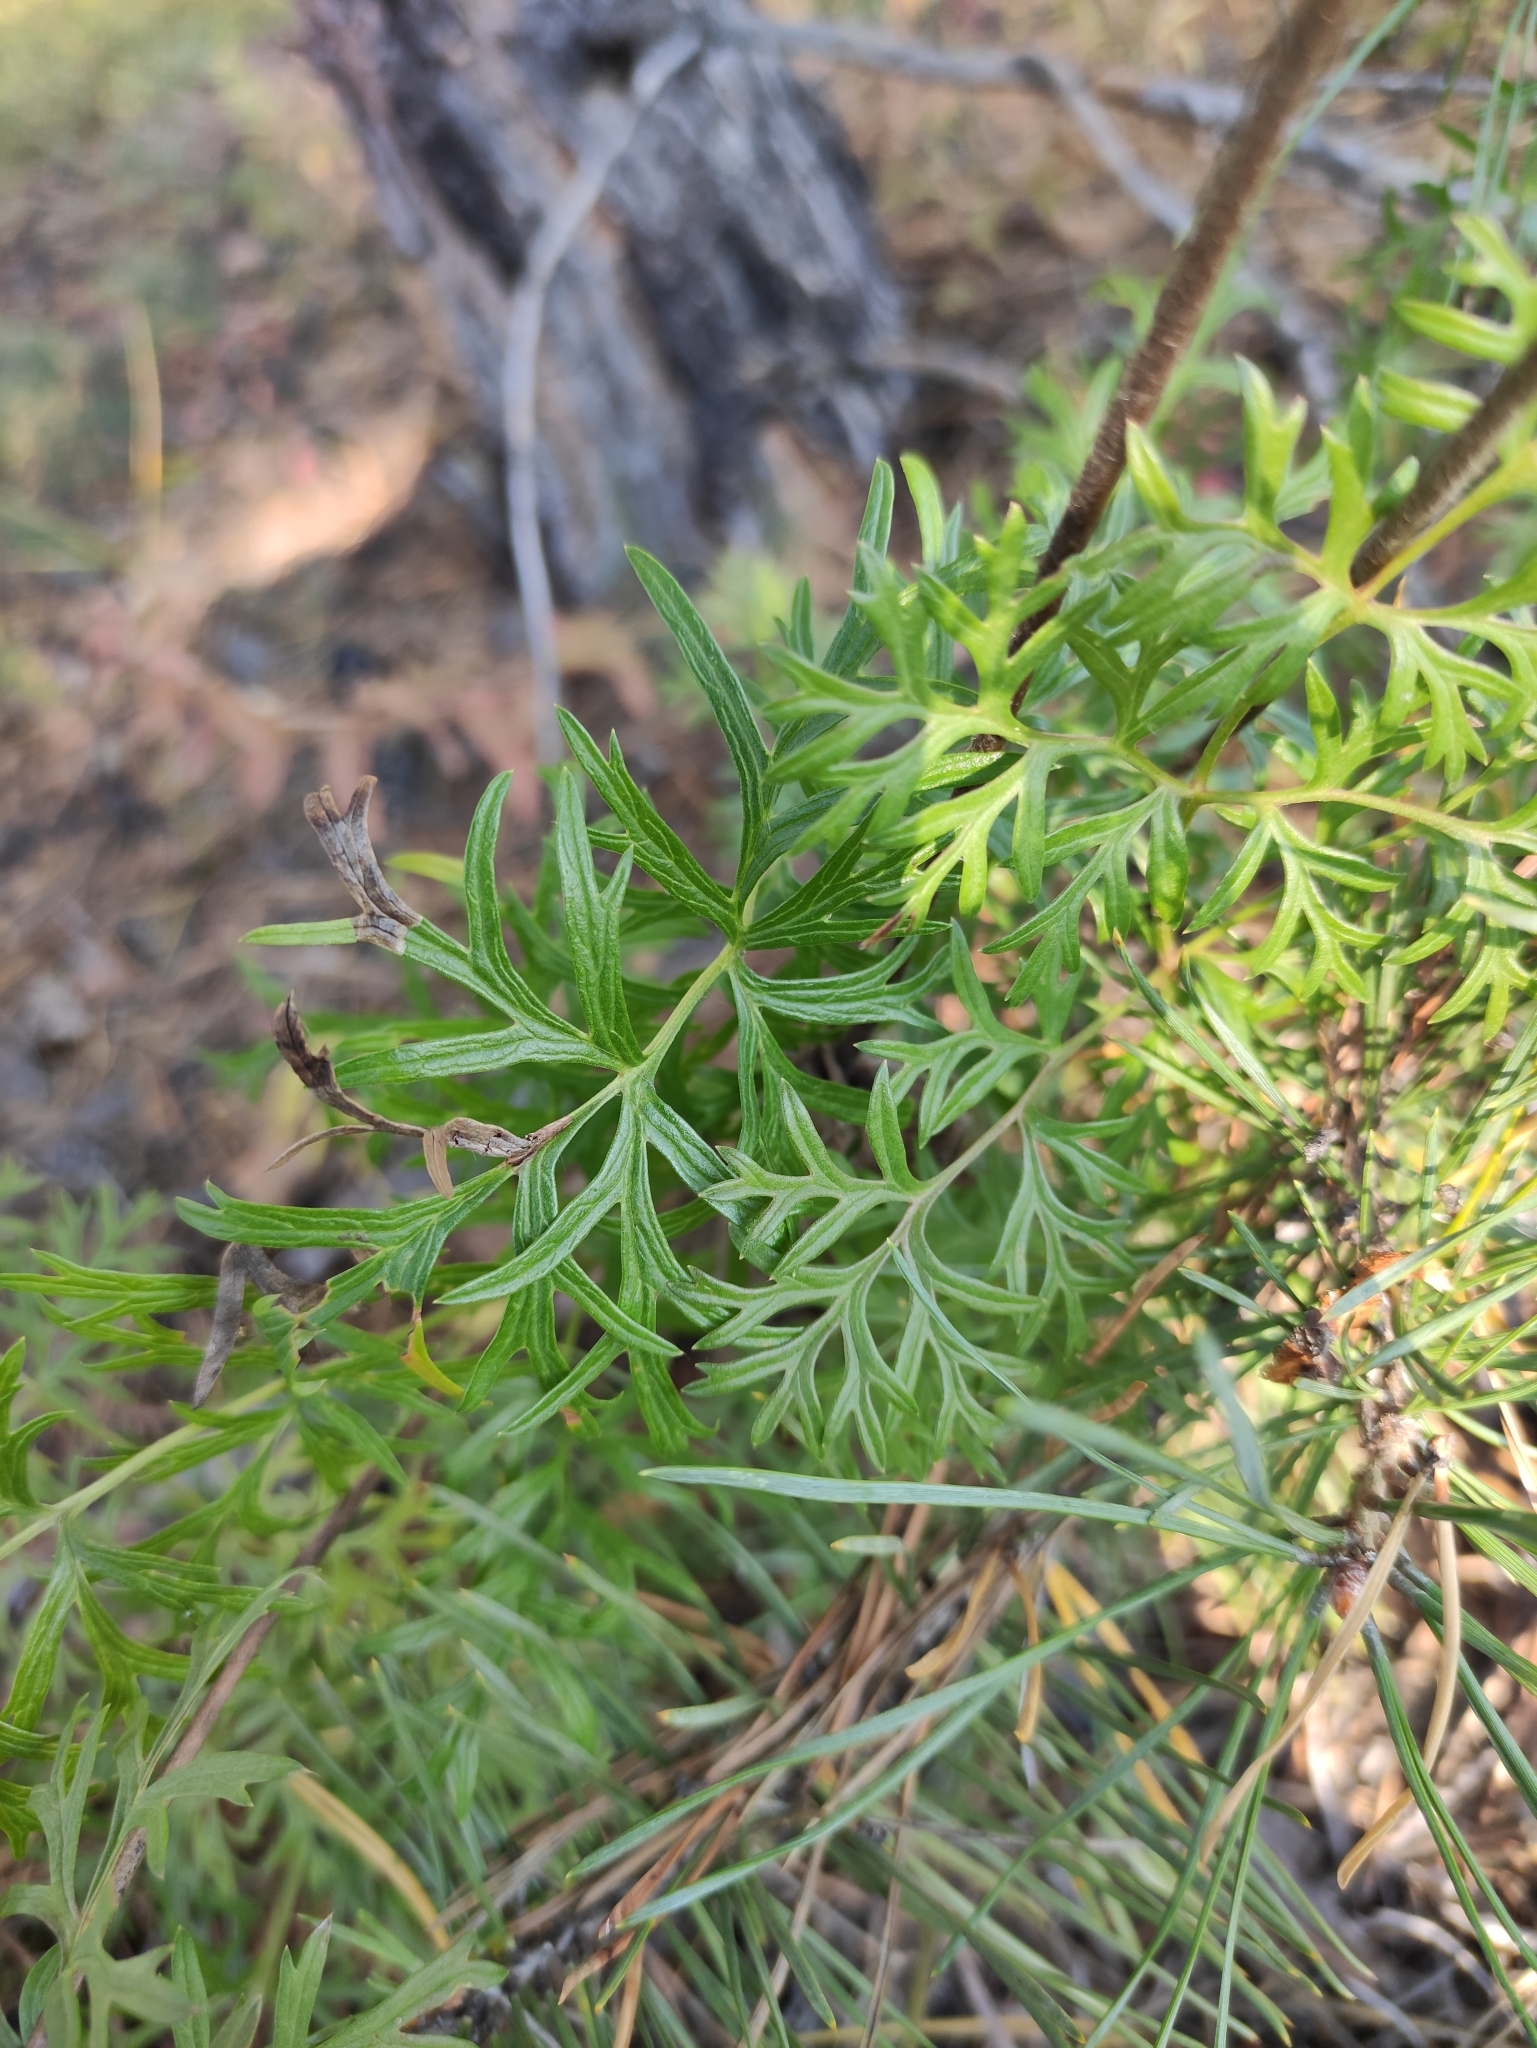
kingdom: Plantae
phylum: Tracheophyta
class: Magnoliopsida
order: Ranunculales
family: Ranunculaceae
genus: Pulsatilla
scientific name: Pulsatilla turczaninovii
